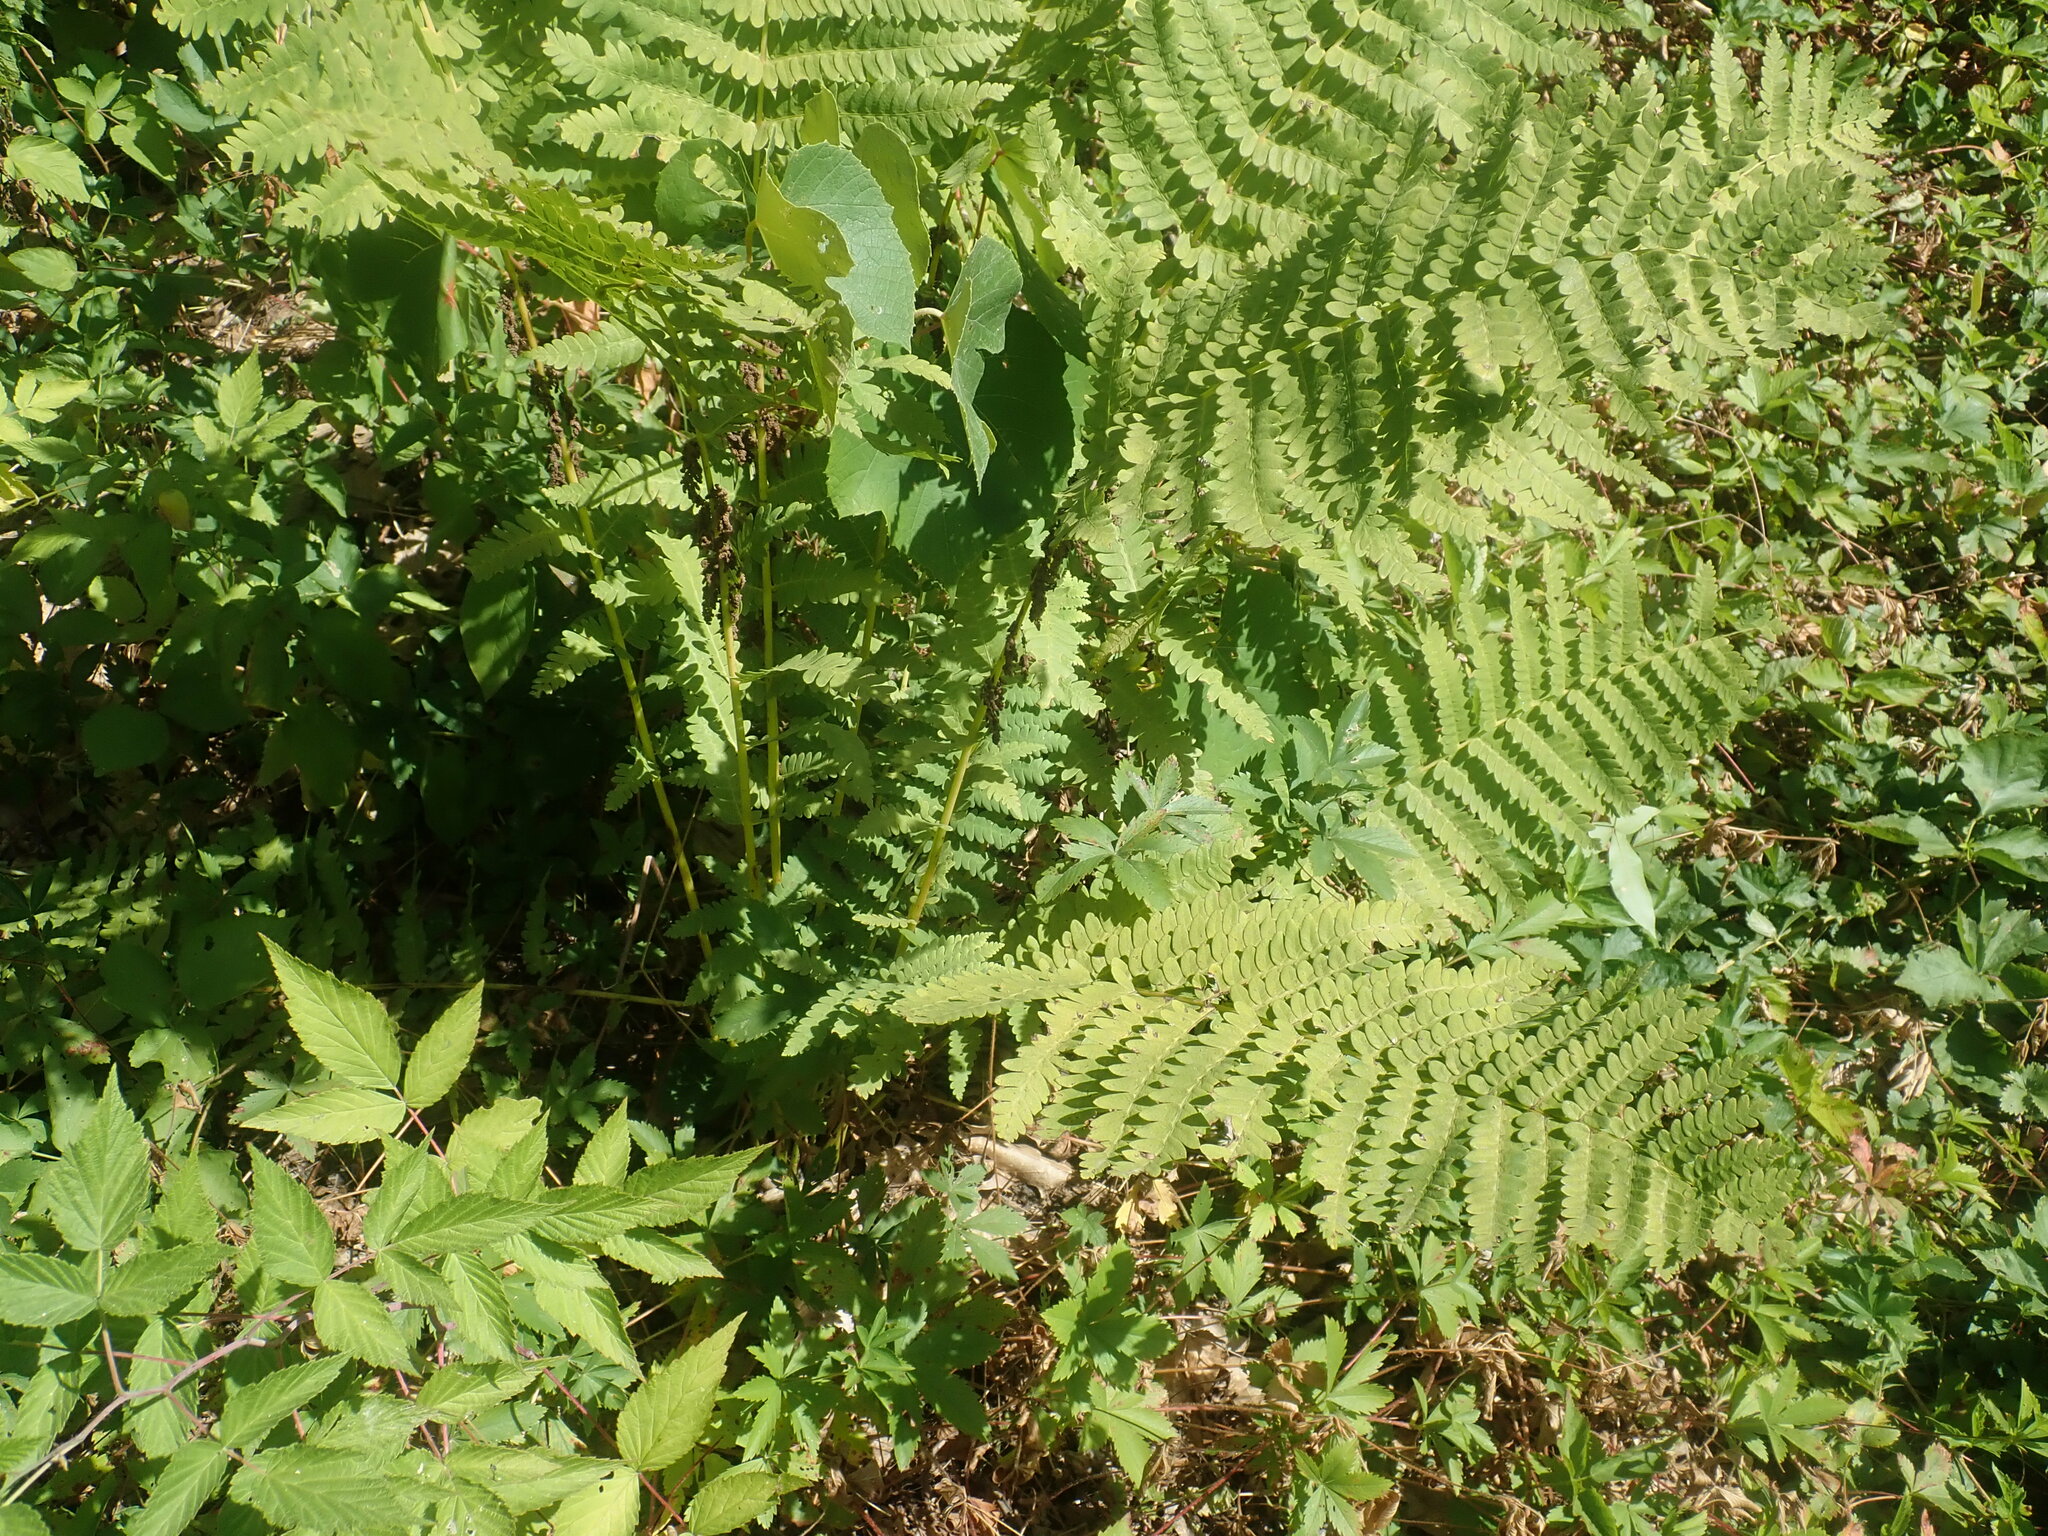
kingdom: Plantae
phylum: Tracheophyta
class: Polypodiopsida
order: Osmundales
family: Osmundaceae
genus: Claytosmunda
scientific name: Claytosmunda claytoniana
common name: Clayton's fern
